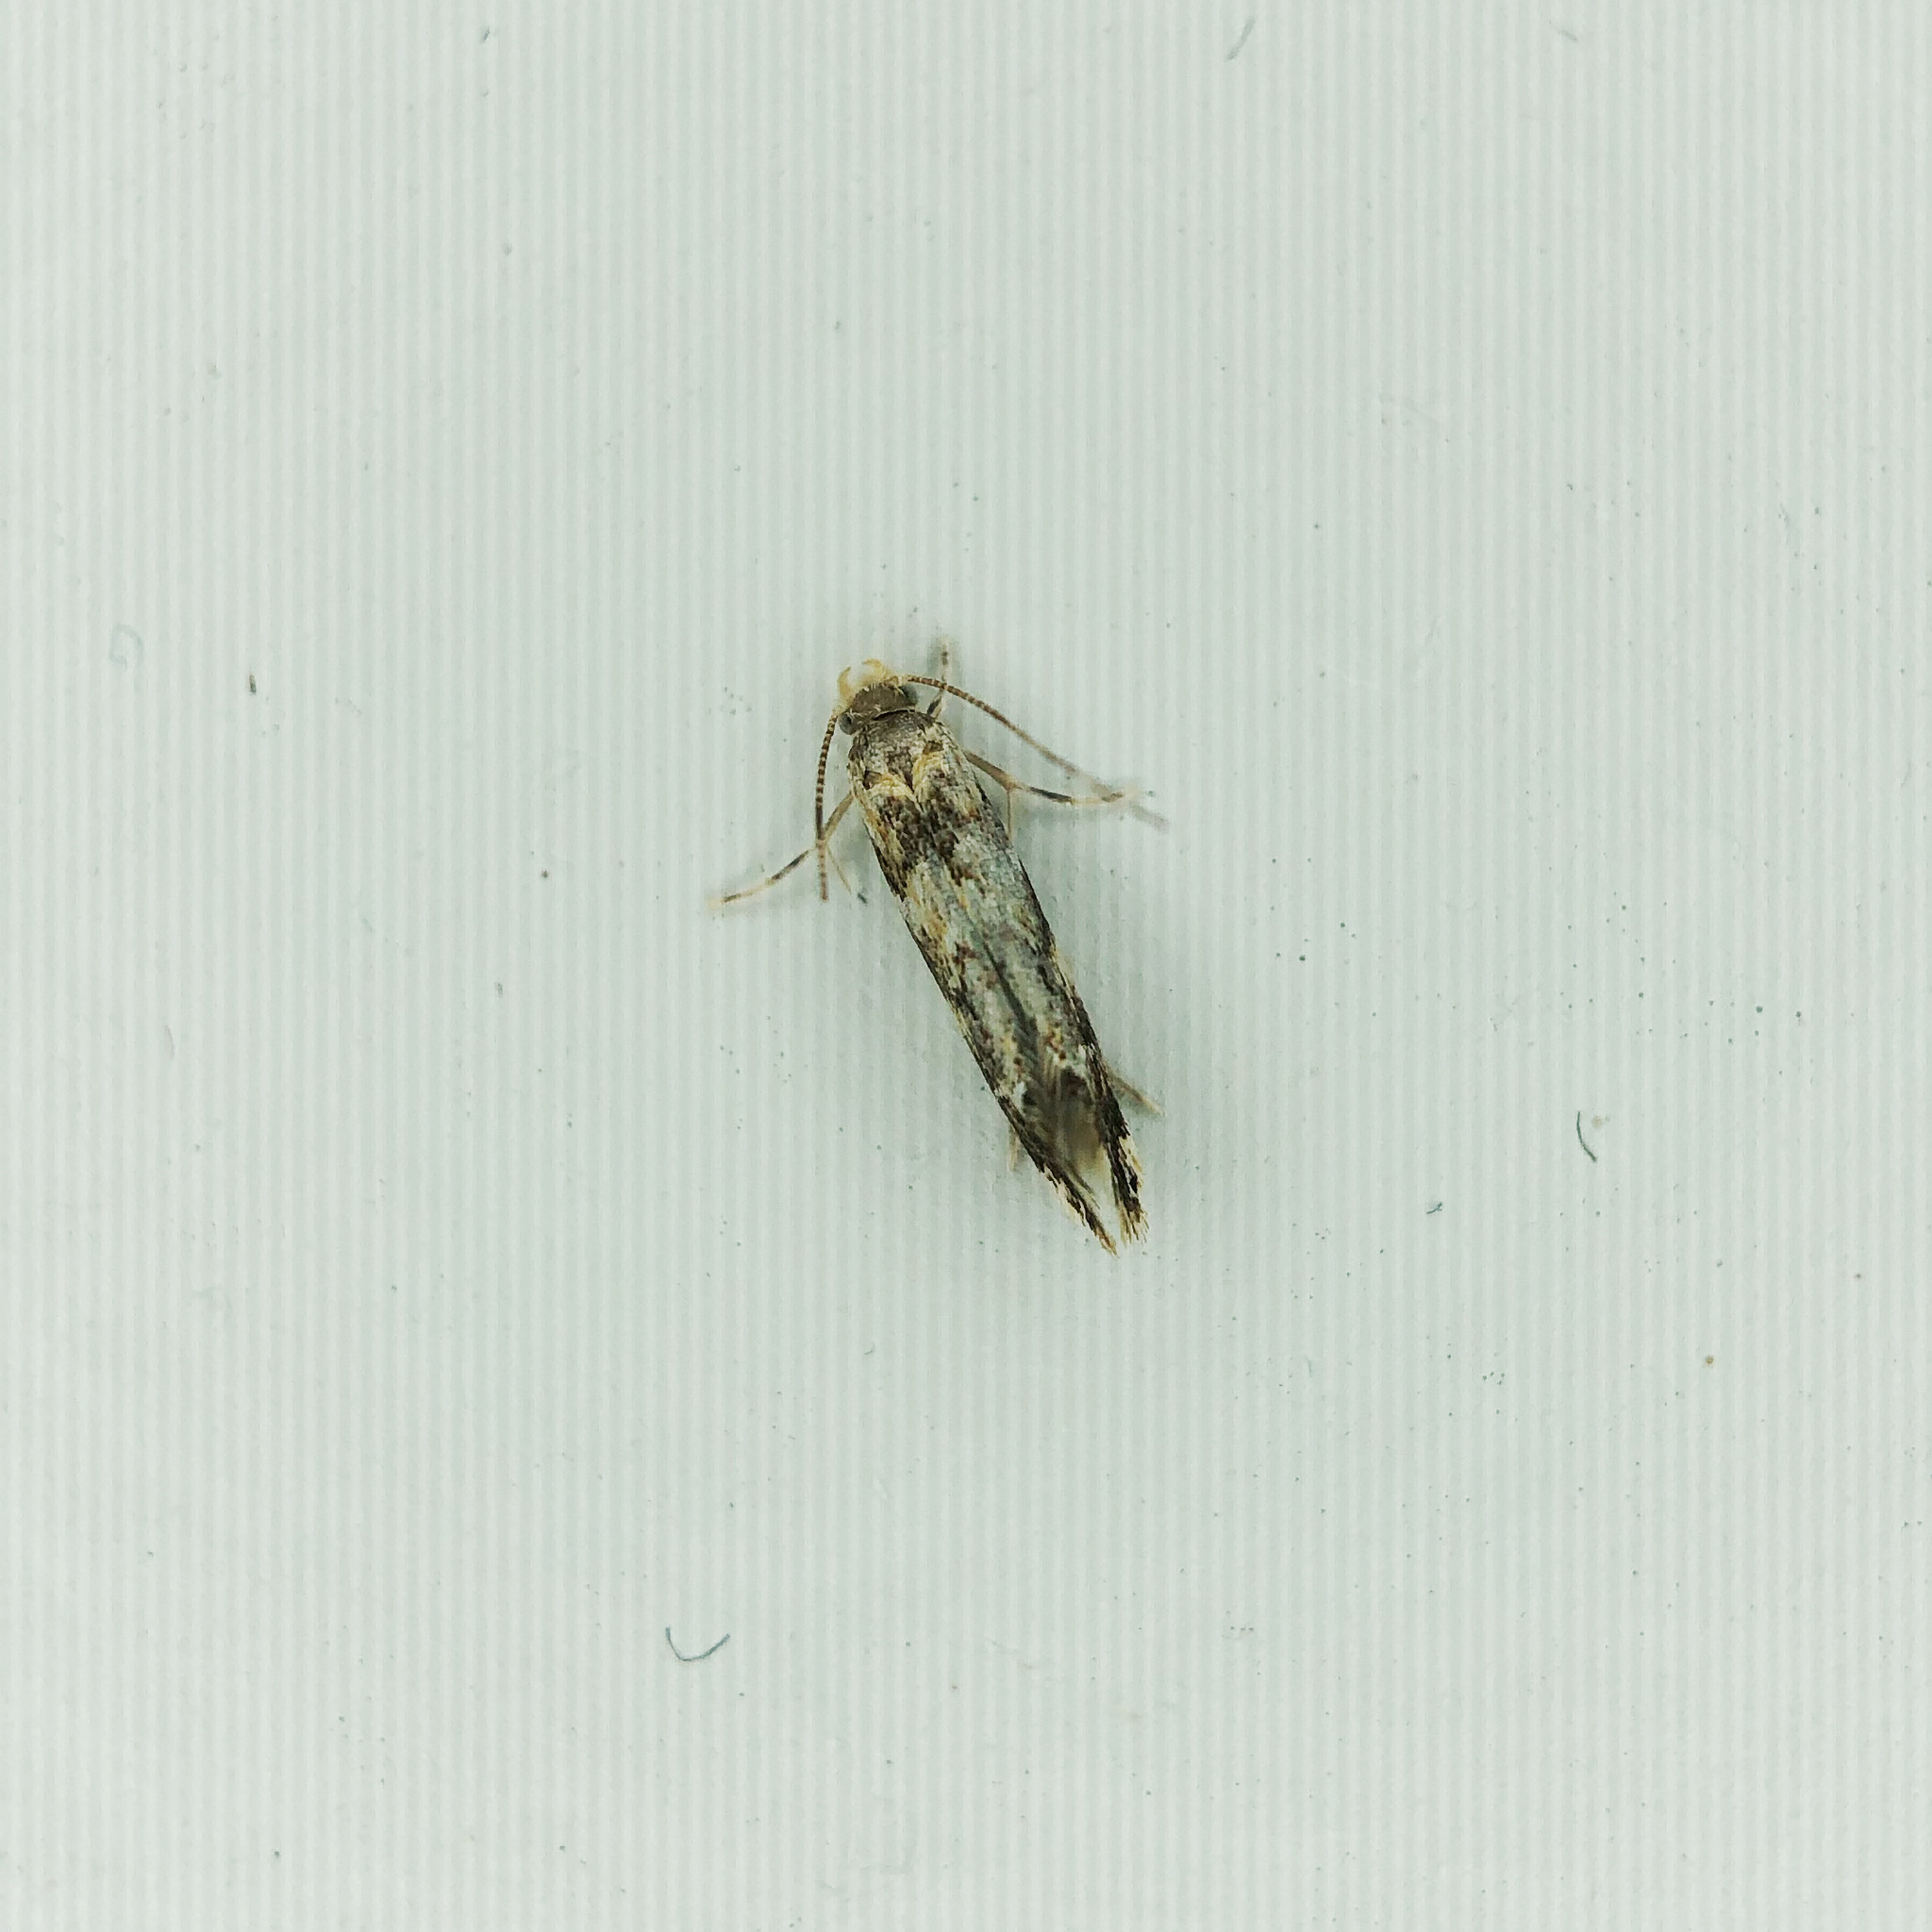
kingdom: Animalia
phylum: Arthropoda
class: Insecta
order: Lepidoptera
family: Dryadaulidae
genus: Dryadaula
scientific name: Dryadaula pactolia
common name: Cellar clothes
